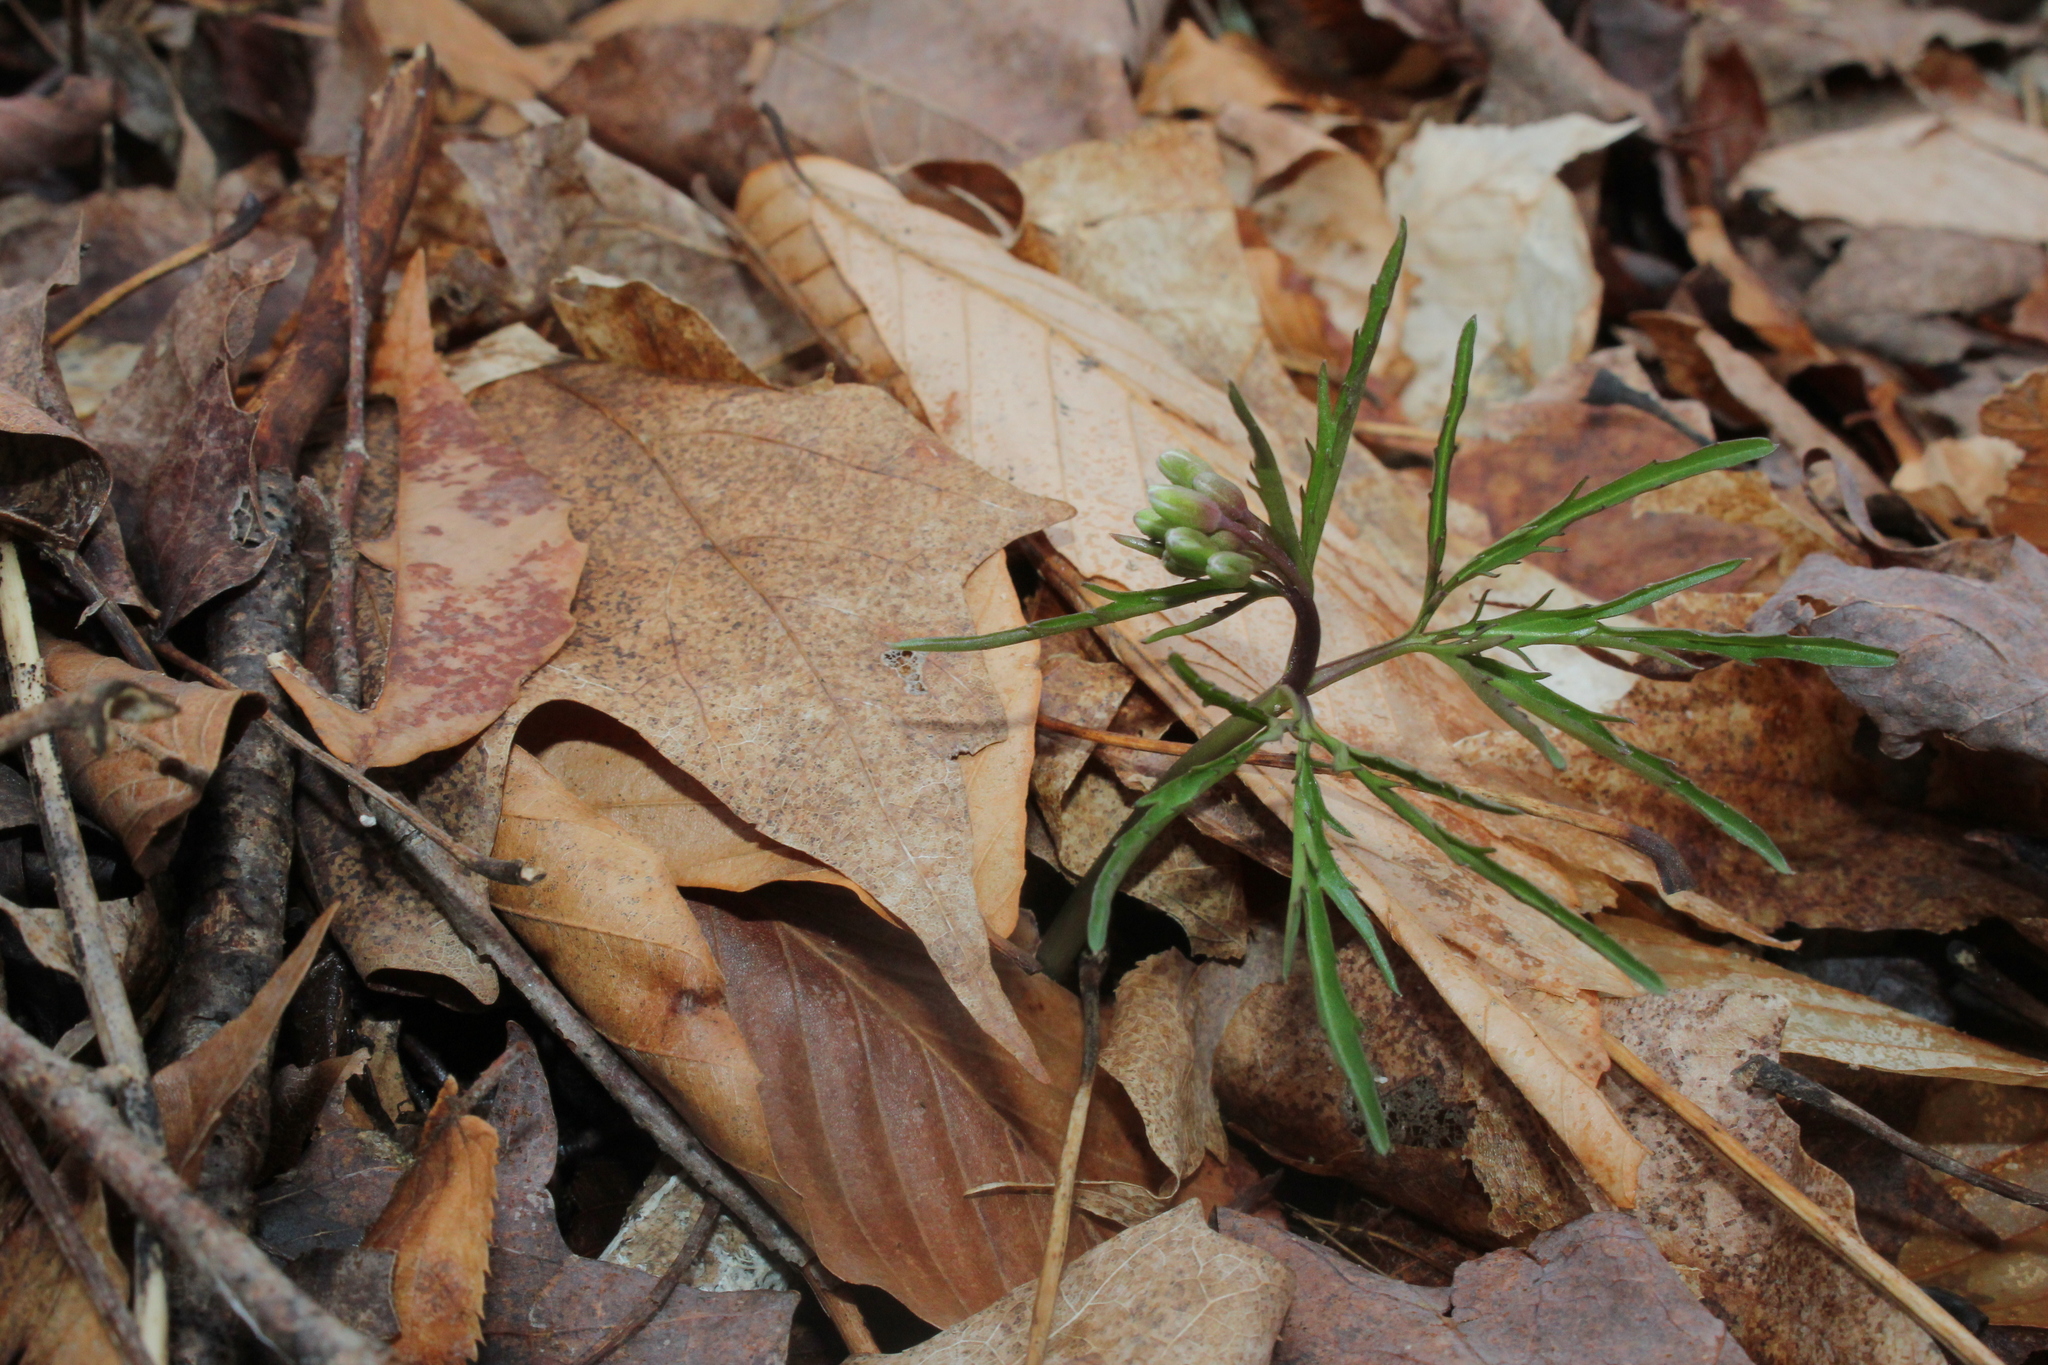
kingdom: Plantae
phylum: Tracheophyta
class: Magnoliopsida
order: Brassicales
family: Brassicaceae
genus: Cardamine
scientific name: Cardamine concatenata
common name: Cut-leaf toothcup
